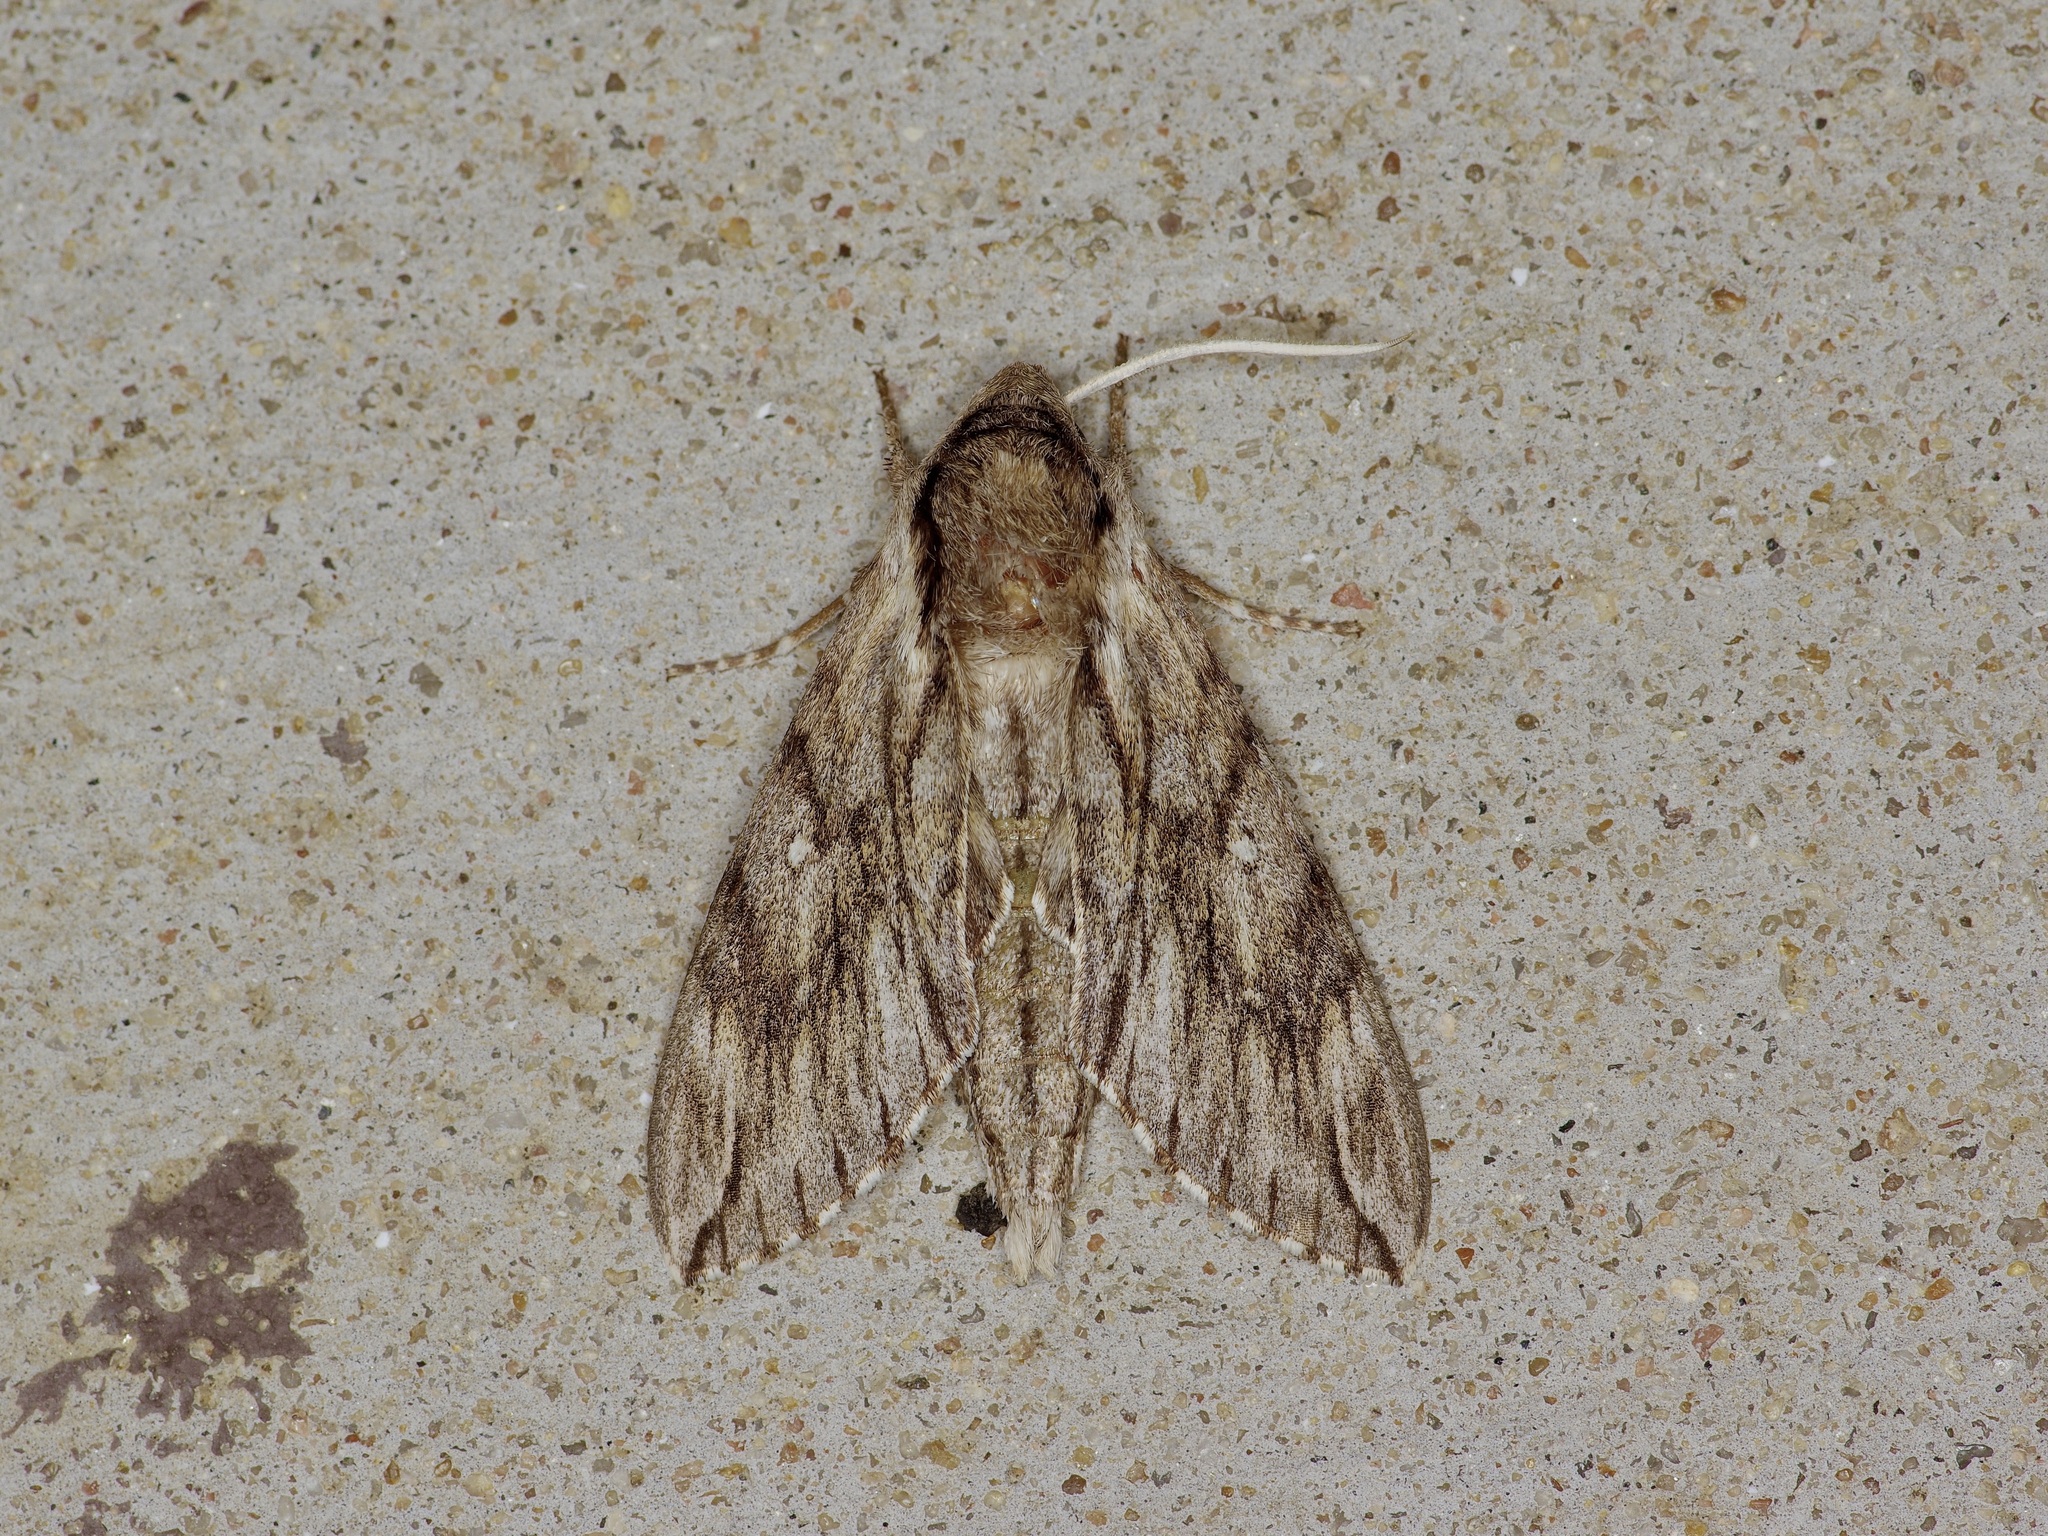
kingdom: Animalia
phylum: Arthropoda
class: Insecta
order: Lepidoptera
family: Sphingidae
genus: Paratrea
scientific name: Paratrea plebeja
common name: Plebian sphinx
